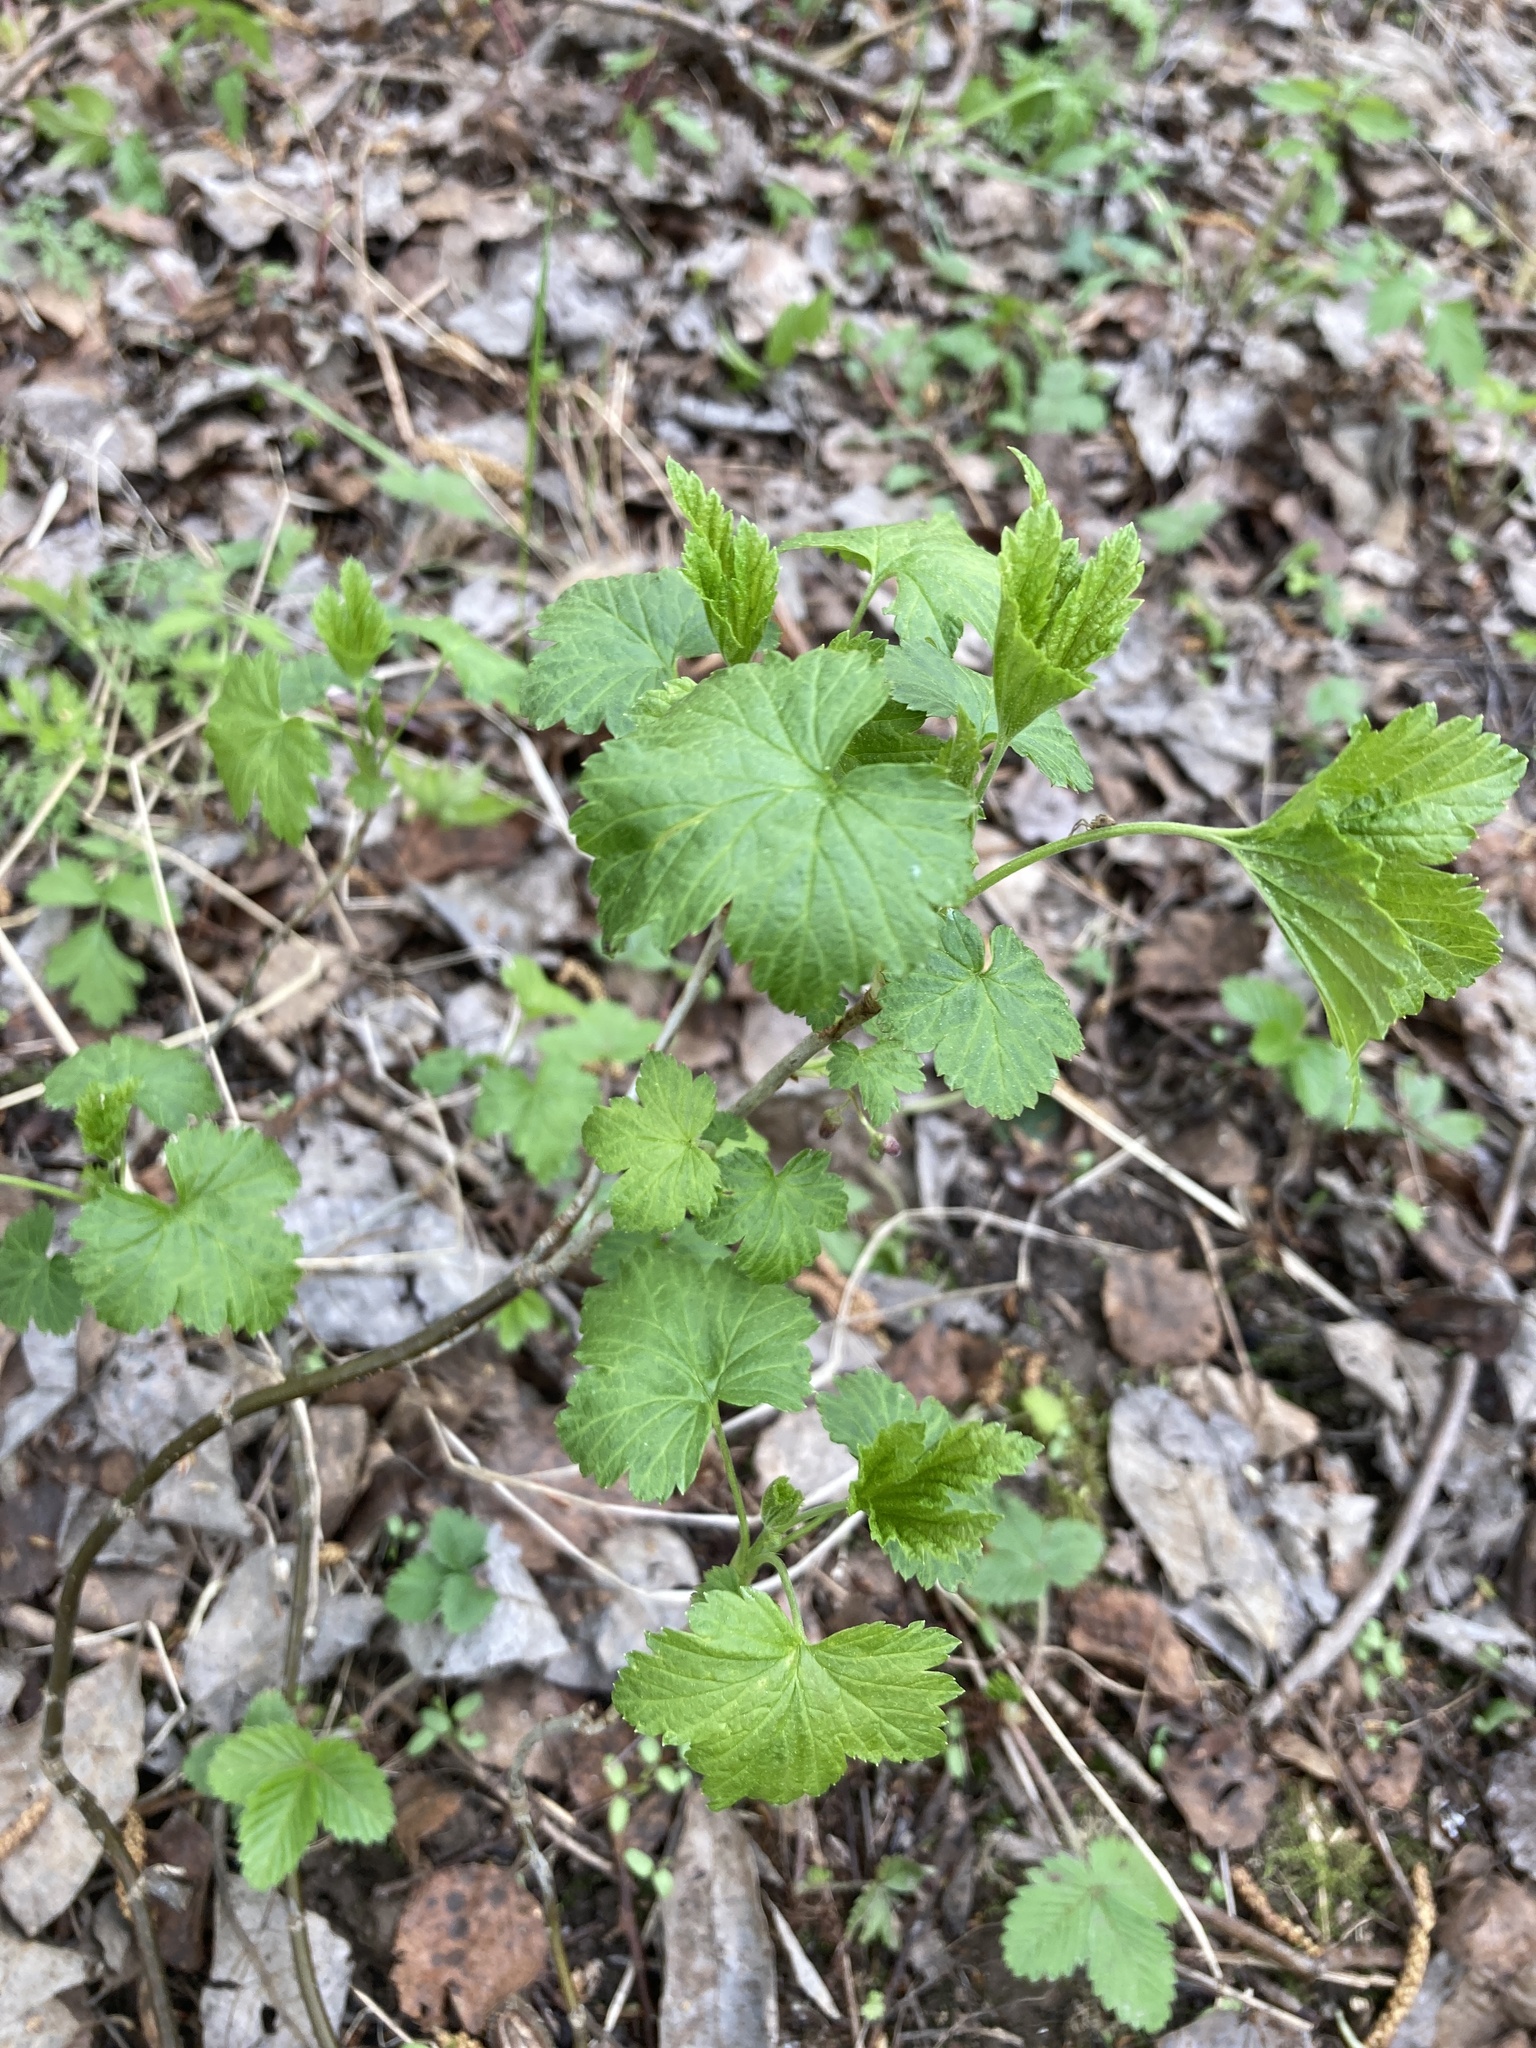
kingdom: Plantae
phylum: Tracheophyta
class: Magnoliopsida
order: Saxifragales
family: Grossulariaceae
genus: Ribes
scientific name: Ribes nigrum
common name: Black currant
